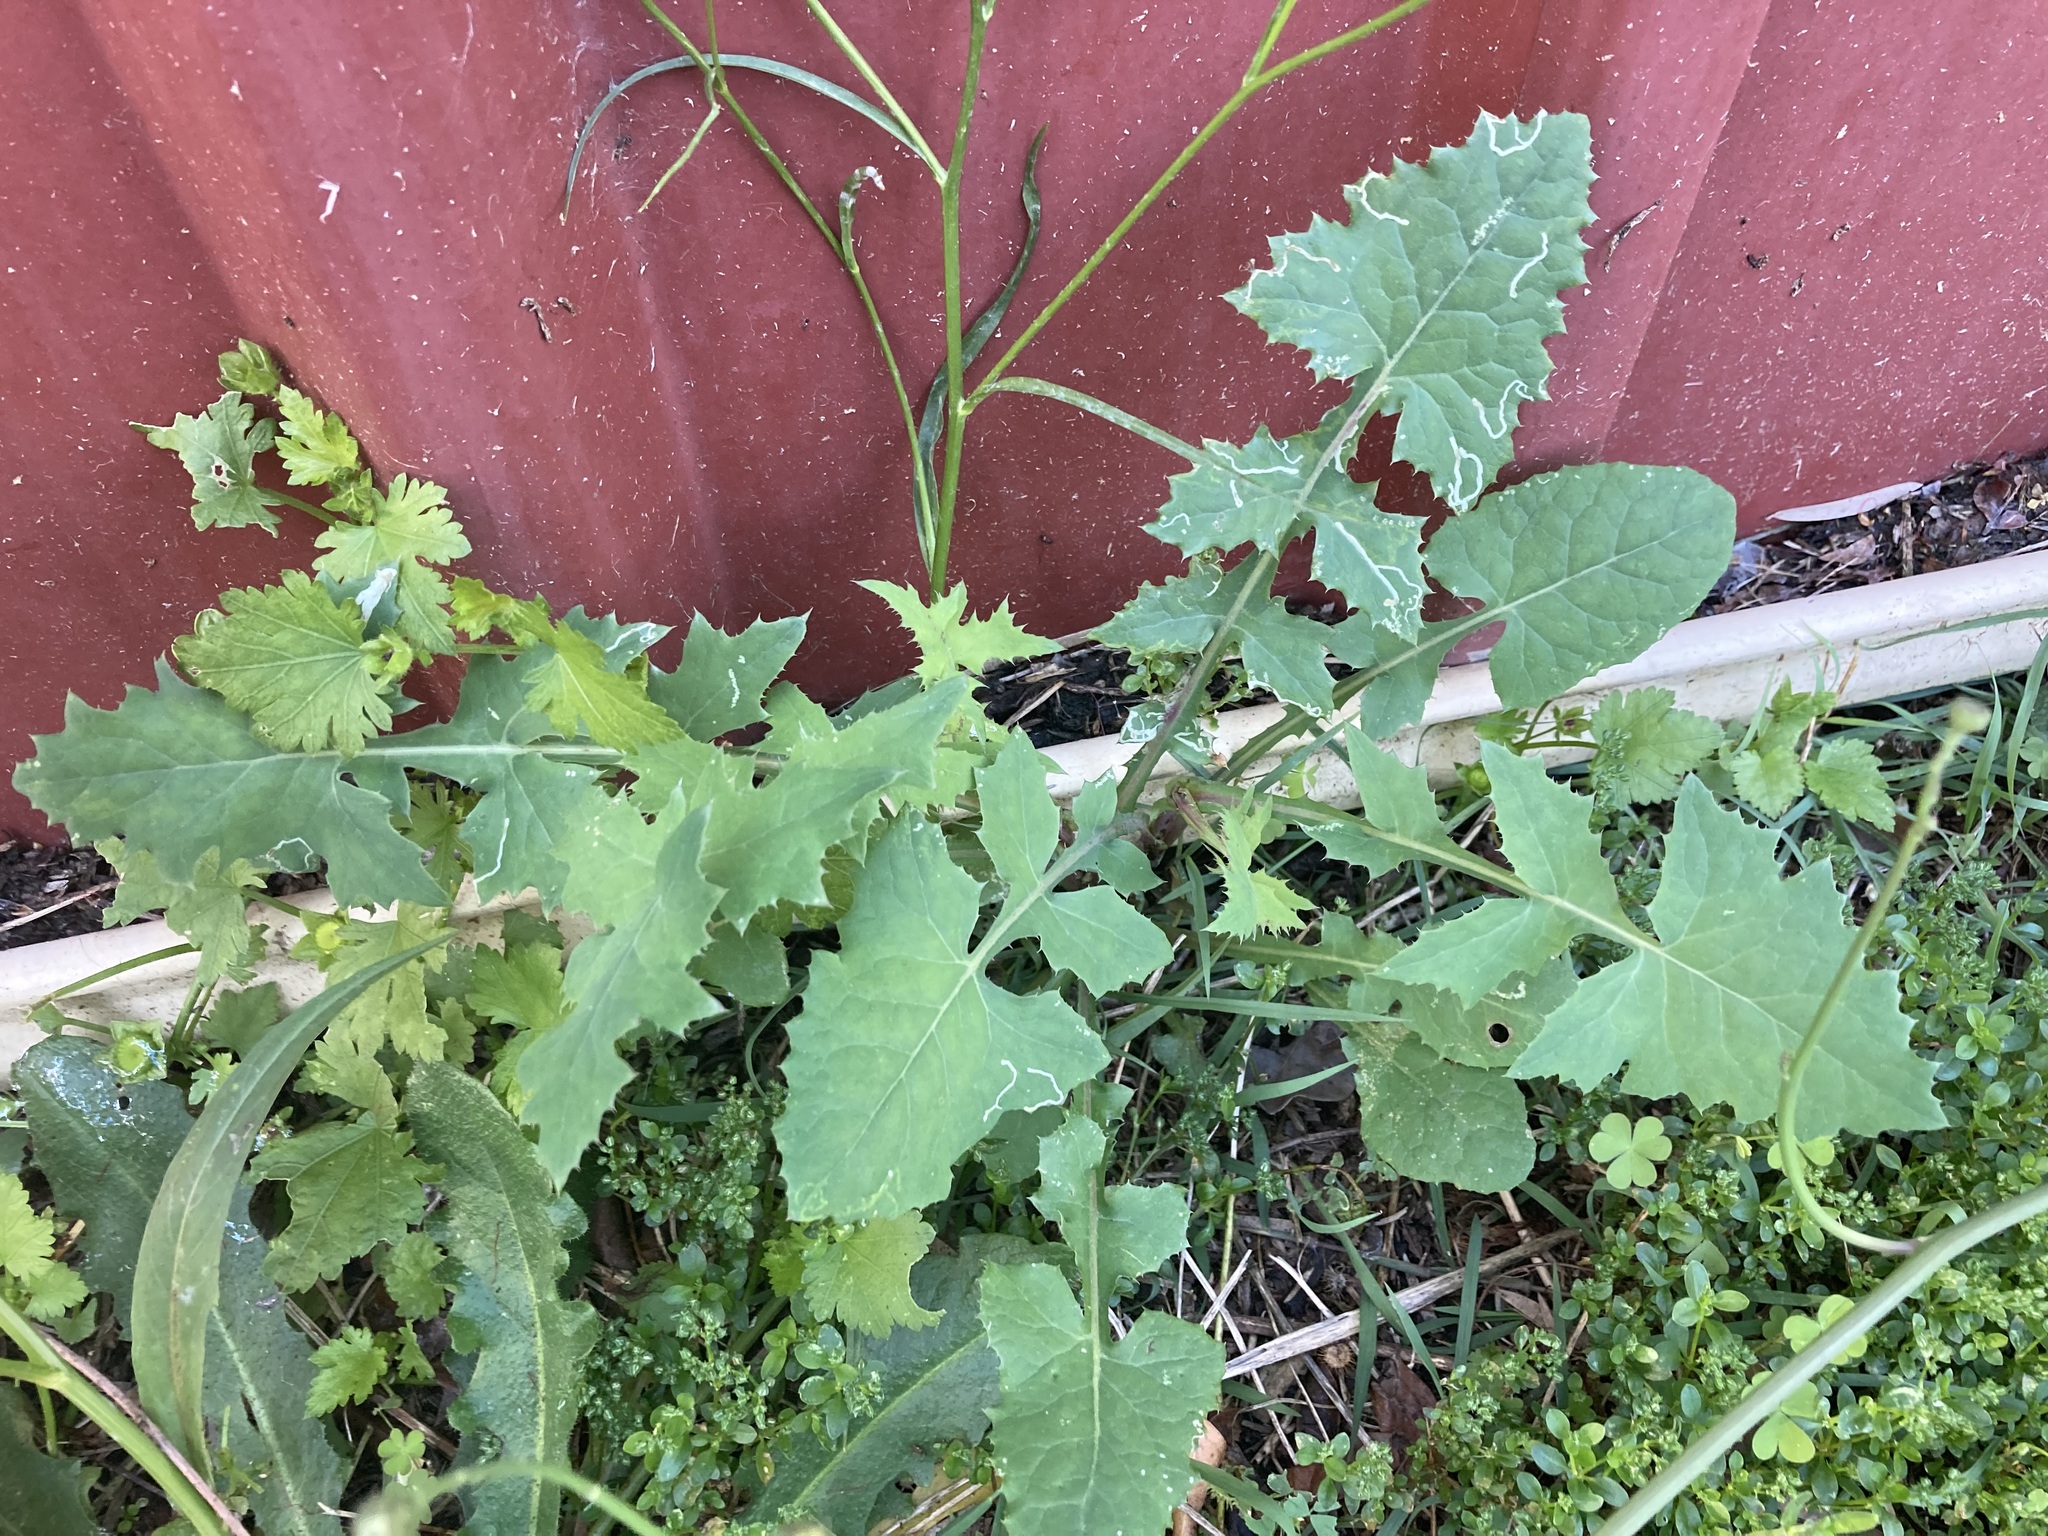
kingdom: Plantae
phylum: Tracheophyta
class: Magnoliopsida
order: Asterales
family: Asteraceae
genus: Sonchus
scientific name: Sonchus oleraceus
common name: Common sowthistle
